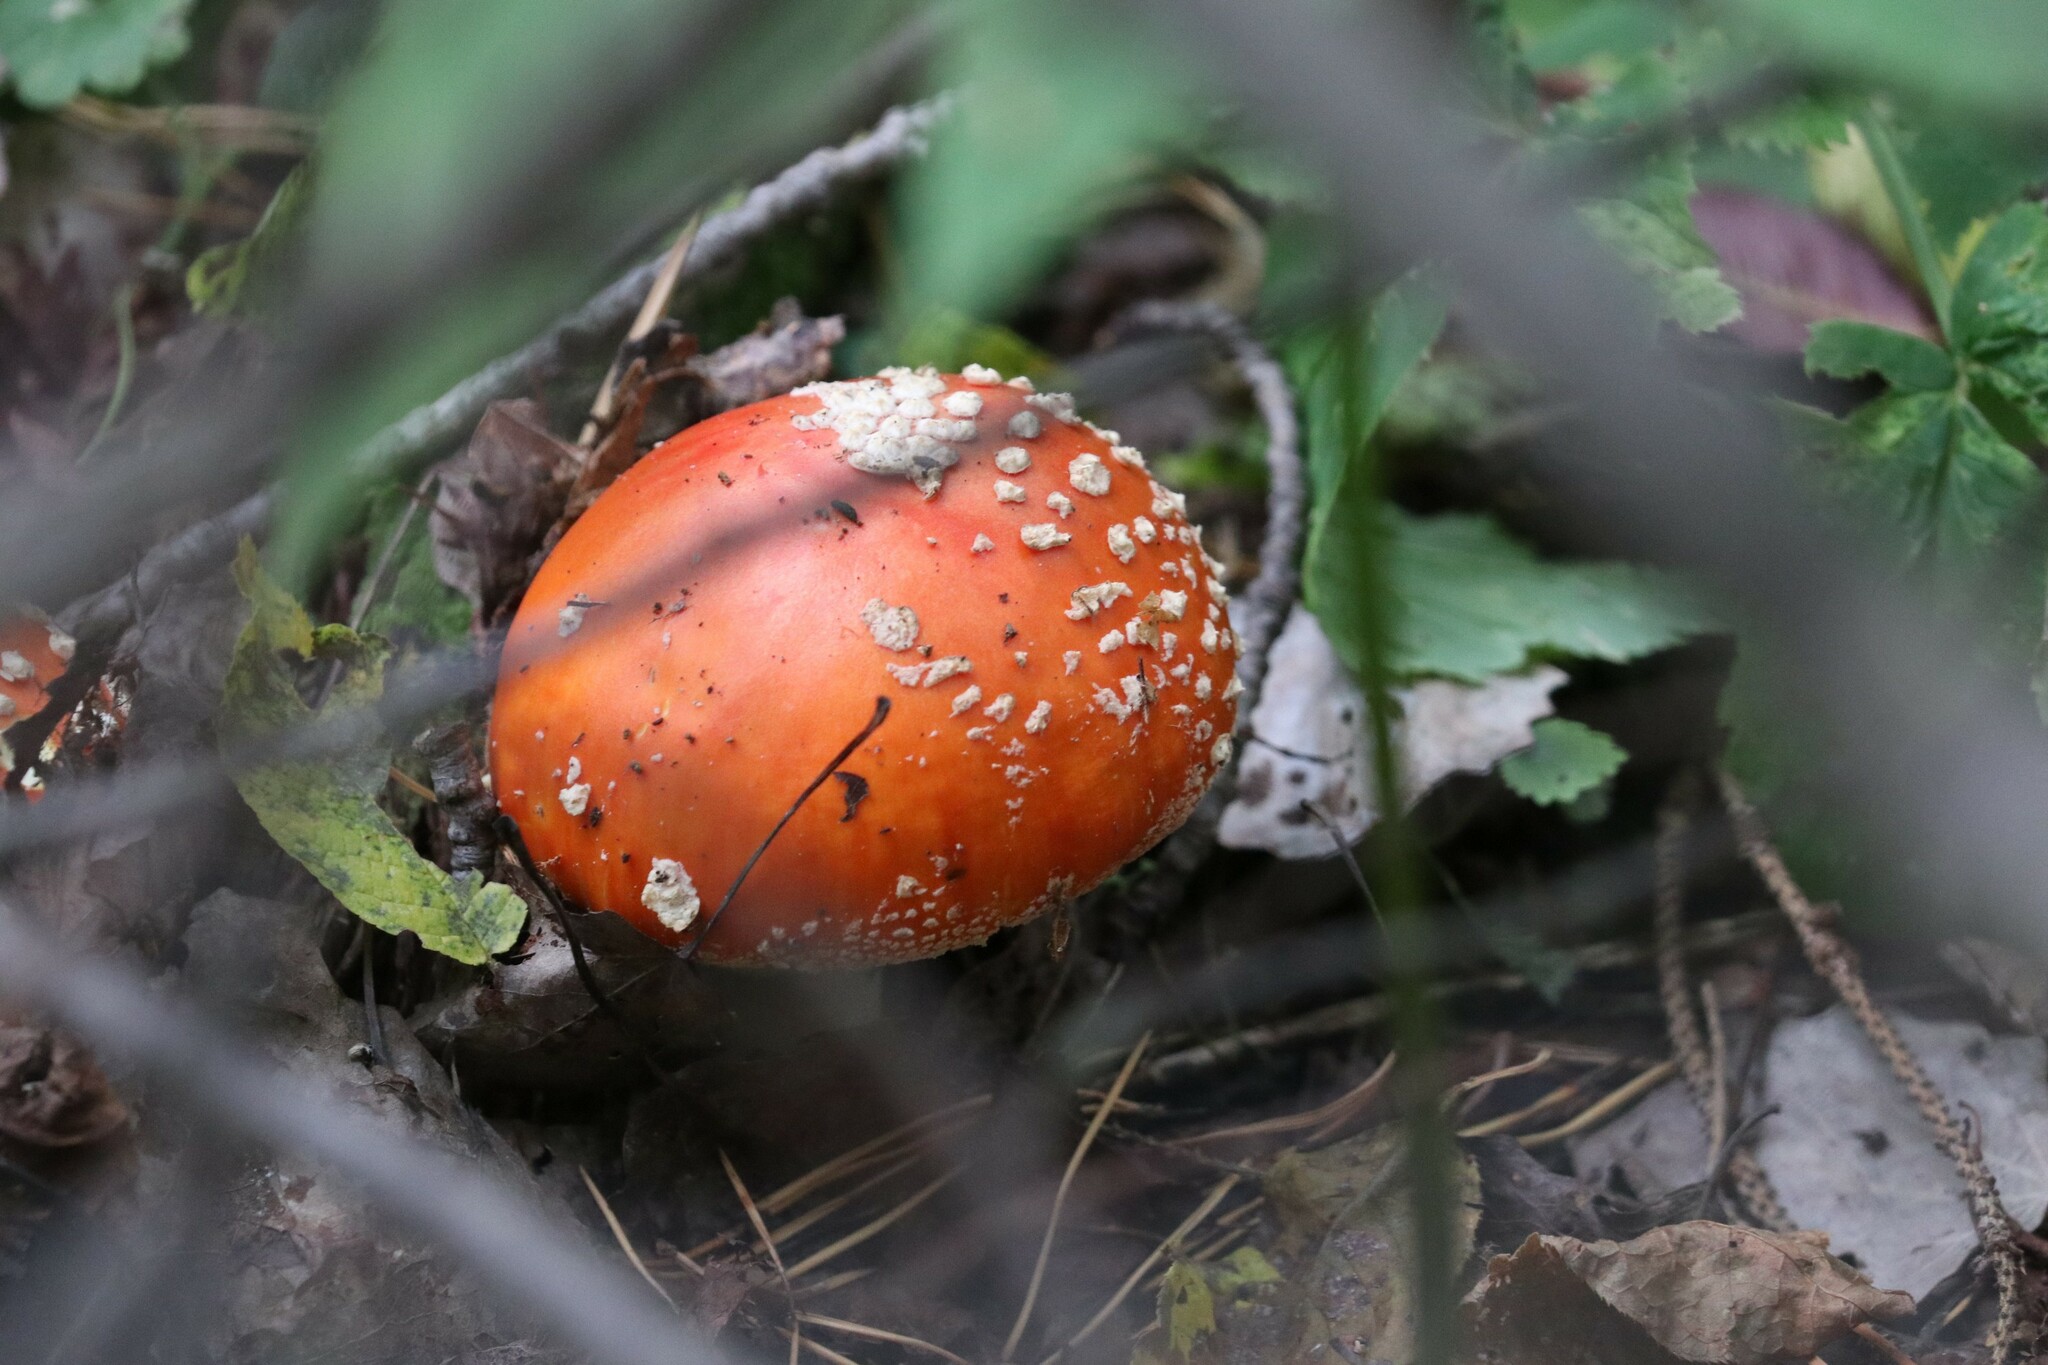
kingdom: Fungi
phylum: Basidiomycota
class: Agaricomycetes
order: Agaricales
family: Amanitaceae
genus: Amanita
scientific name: Amanita muscaria
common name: Fly agaric
